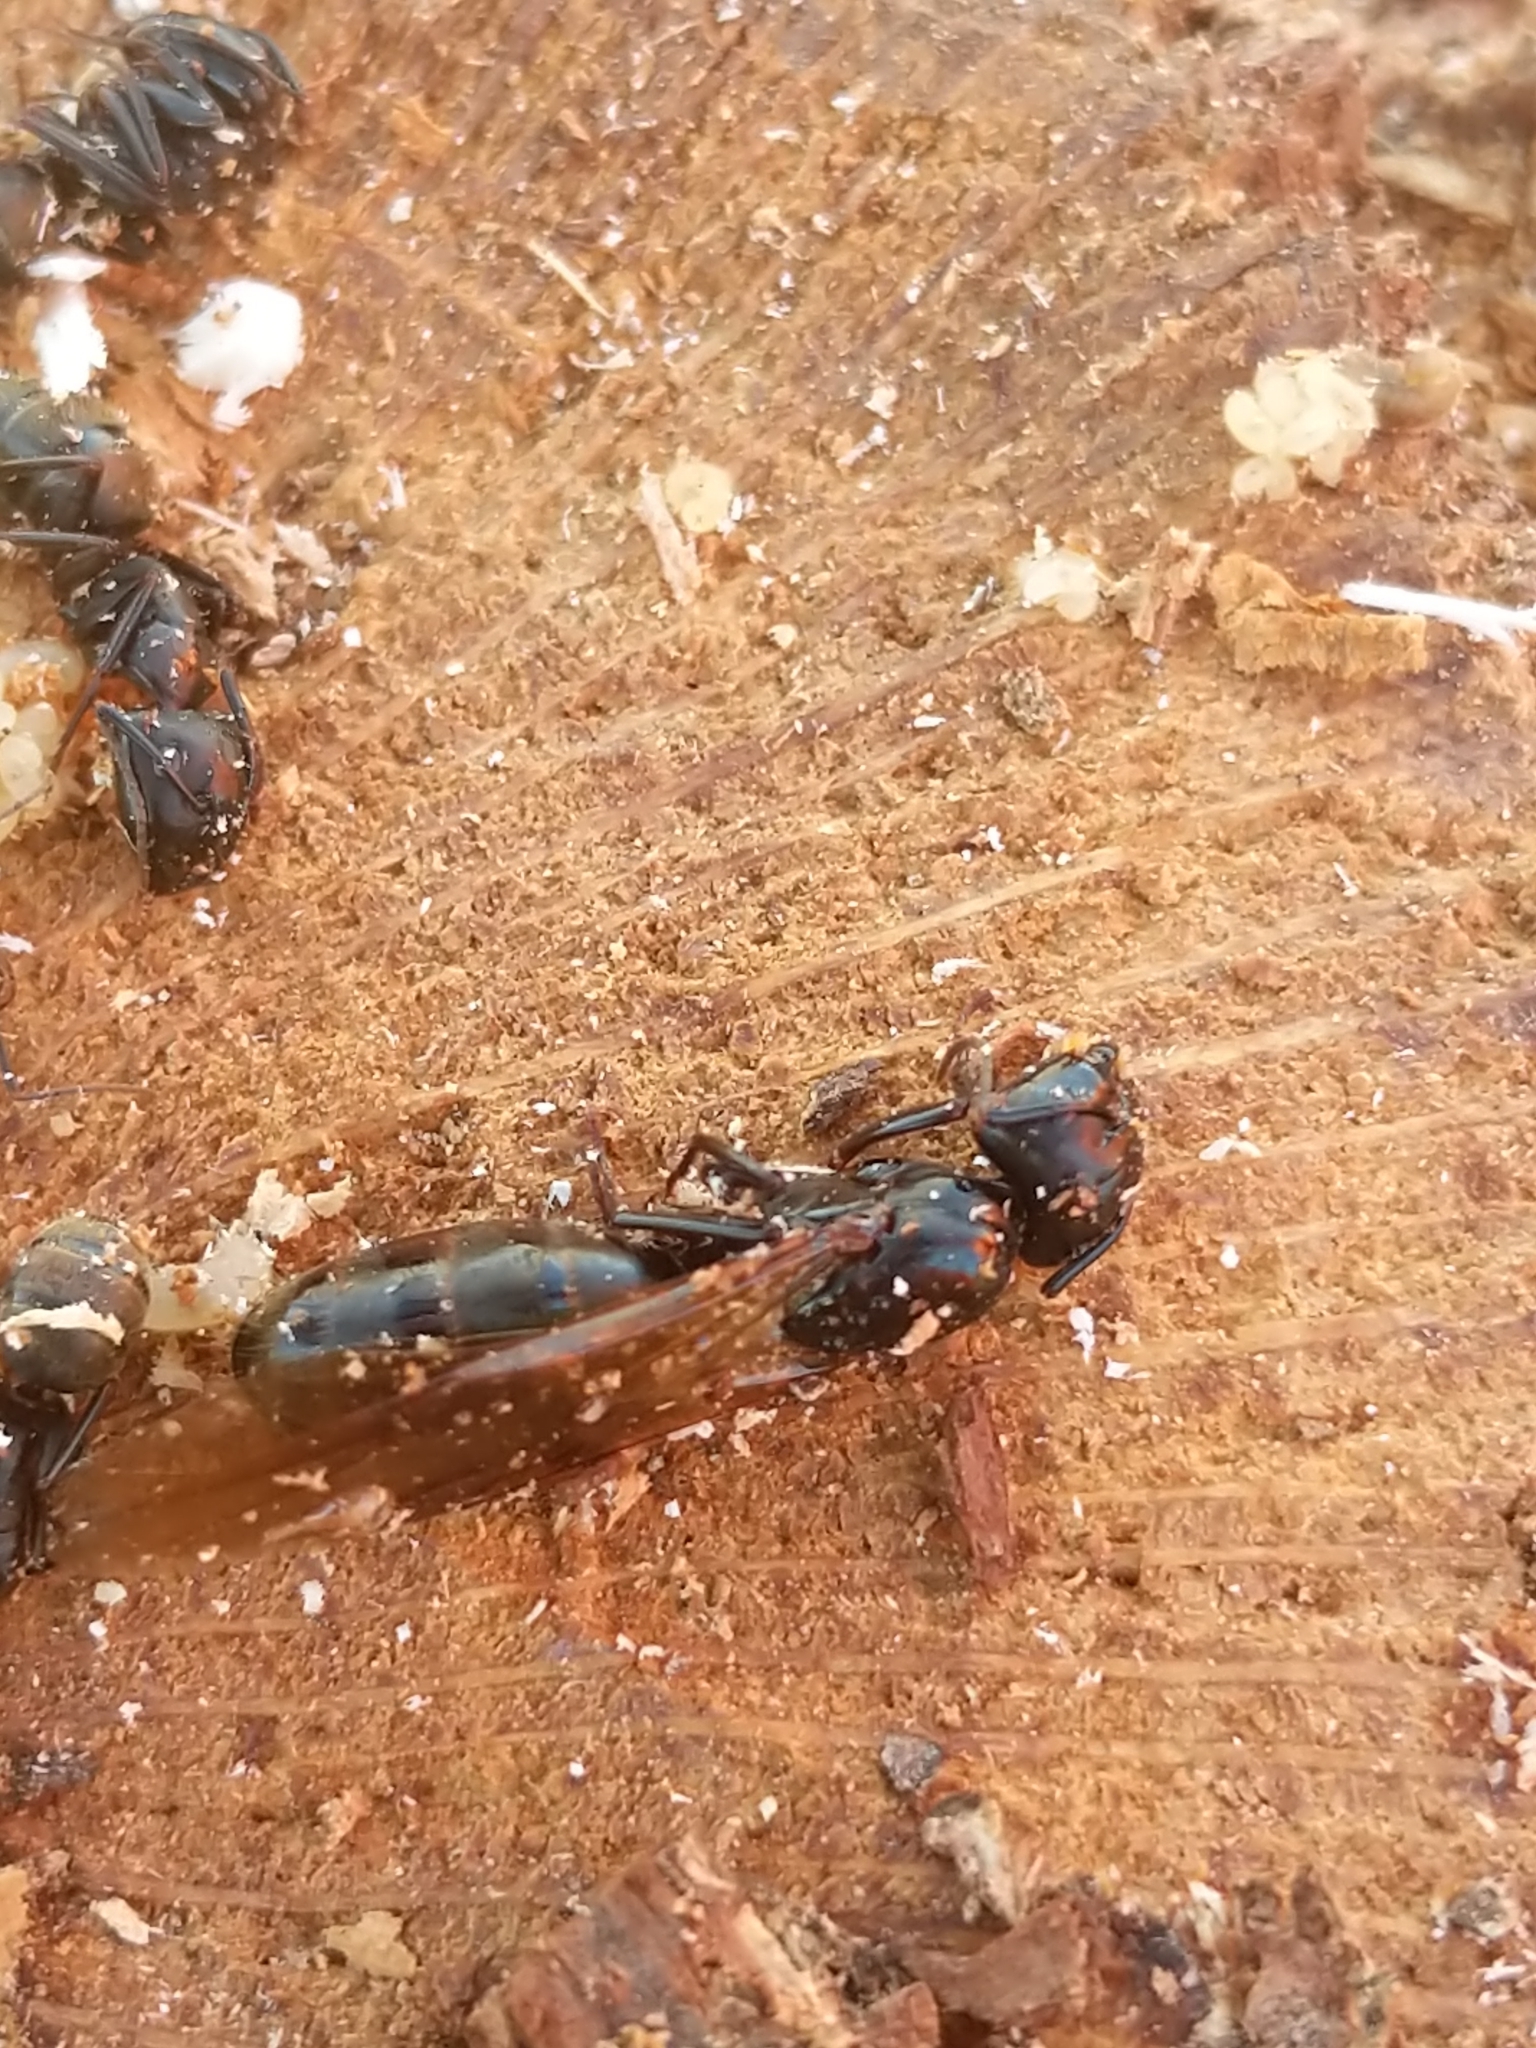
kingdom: Animalia
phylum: Arthropoda
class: Insecta
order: Hymenoptera
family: Formicidae
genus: Camponotus
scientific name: Camponotus pennsylvanicus
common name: Black carpenter ant
